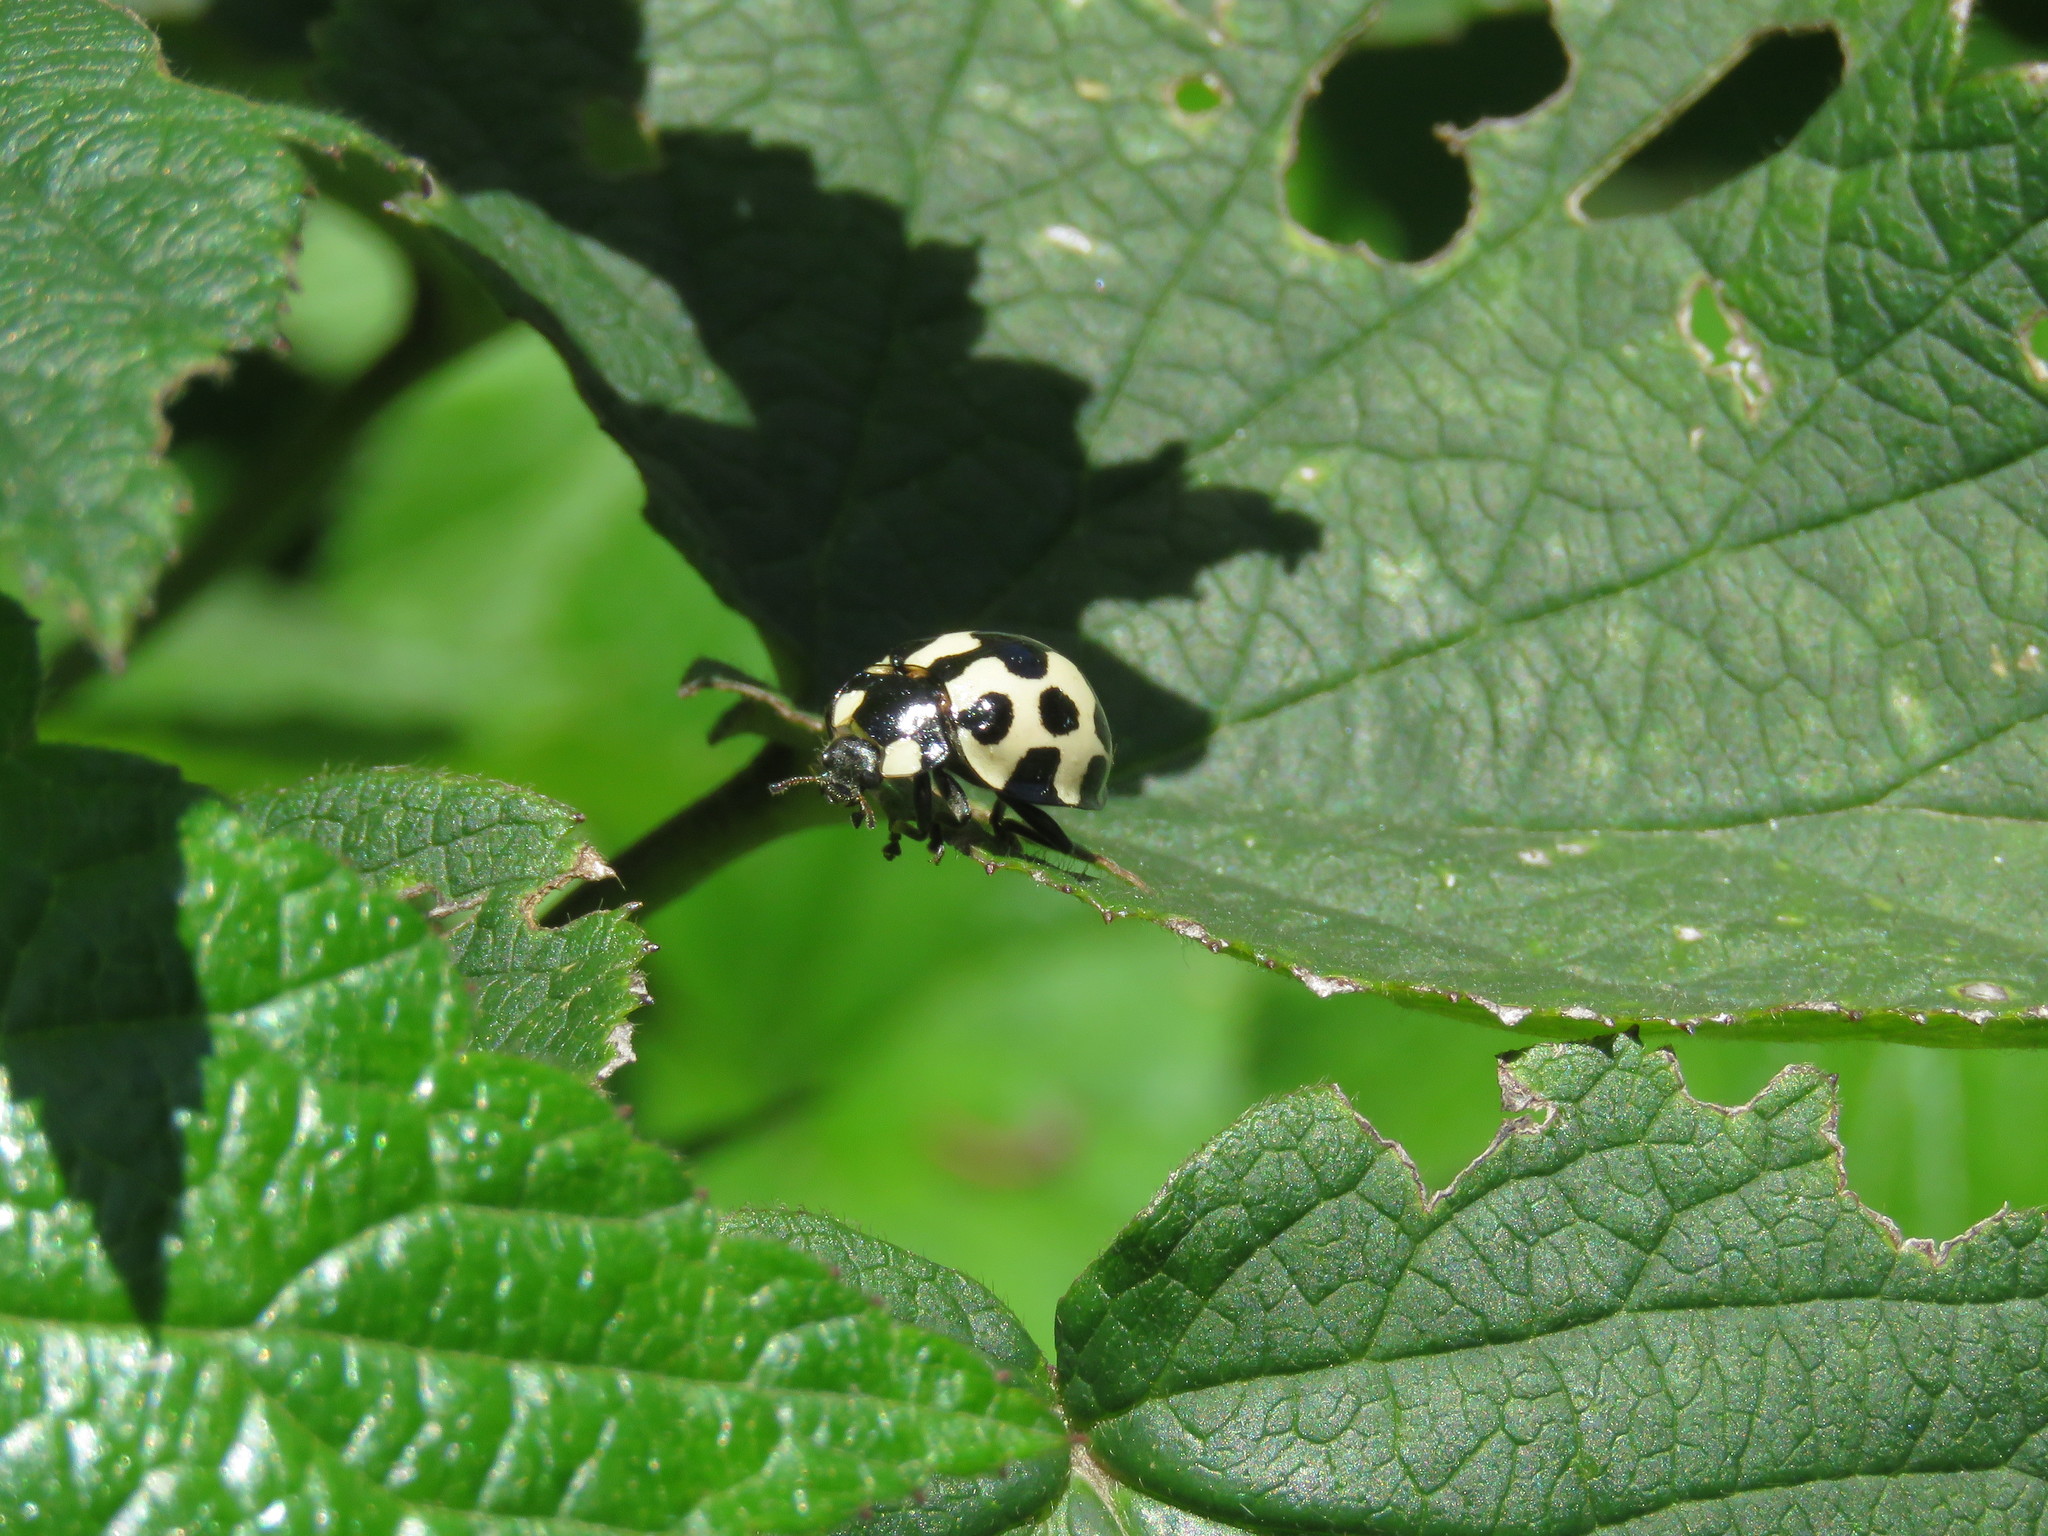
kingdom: Animalia
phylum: Arthropoda
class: Insecta
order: Coleoptera
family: Coccinellidae
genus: Anatis
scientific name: Anatis
